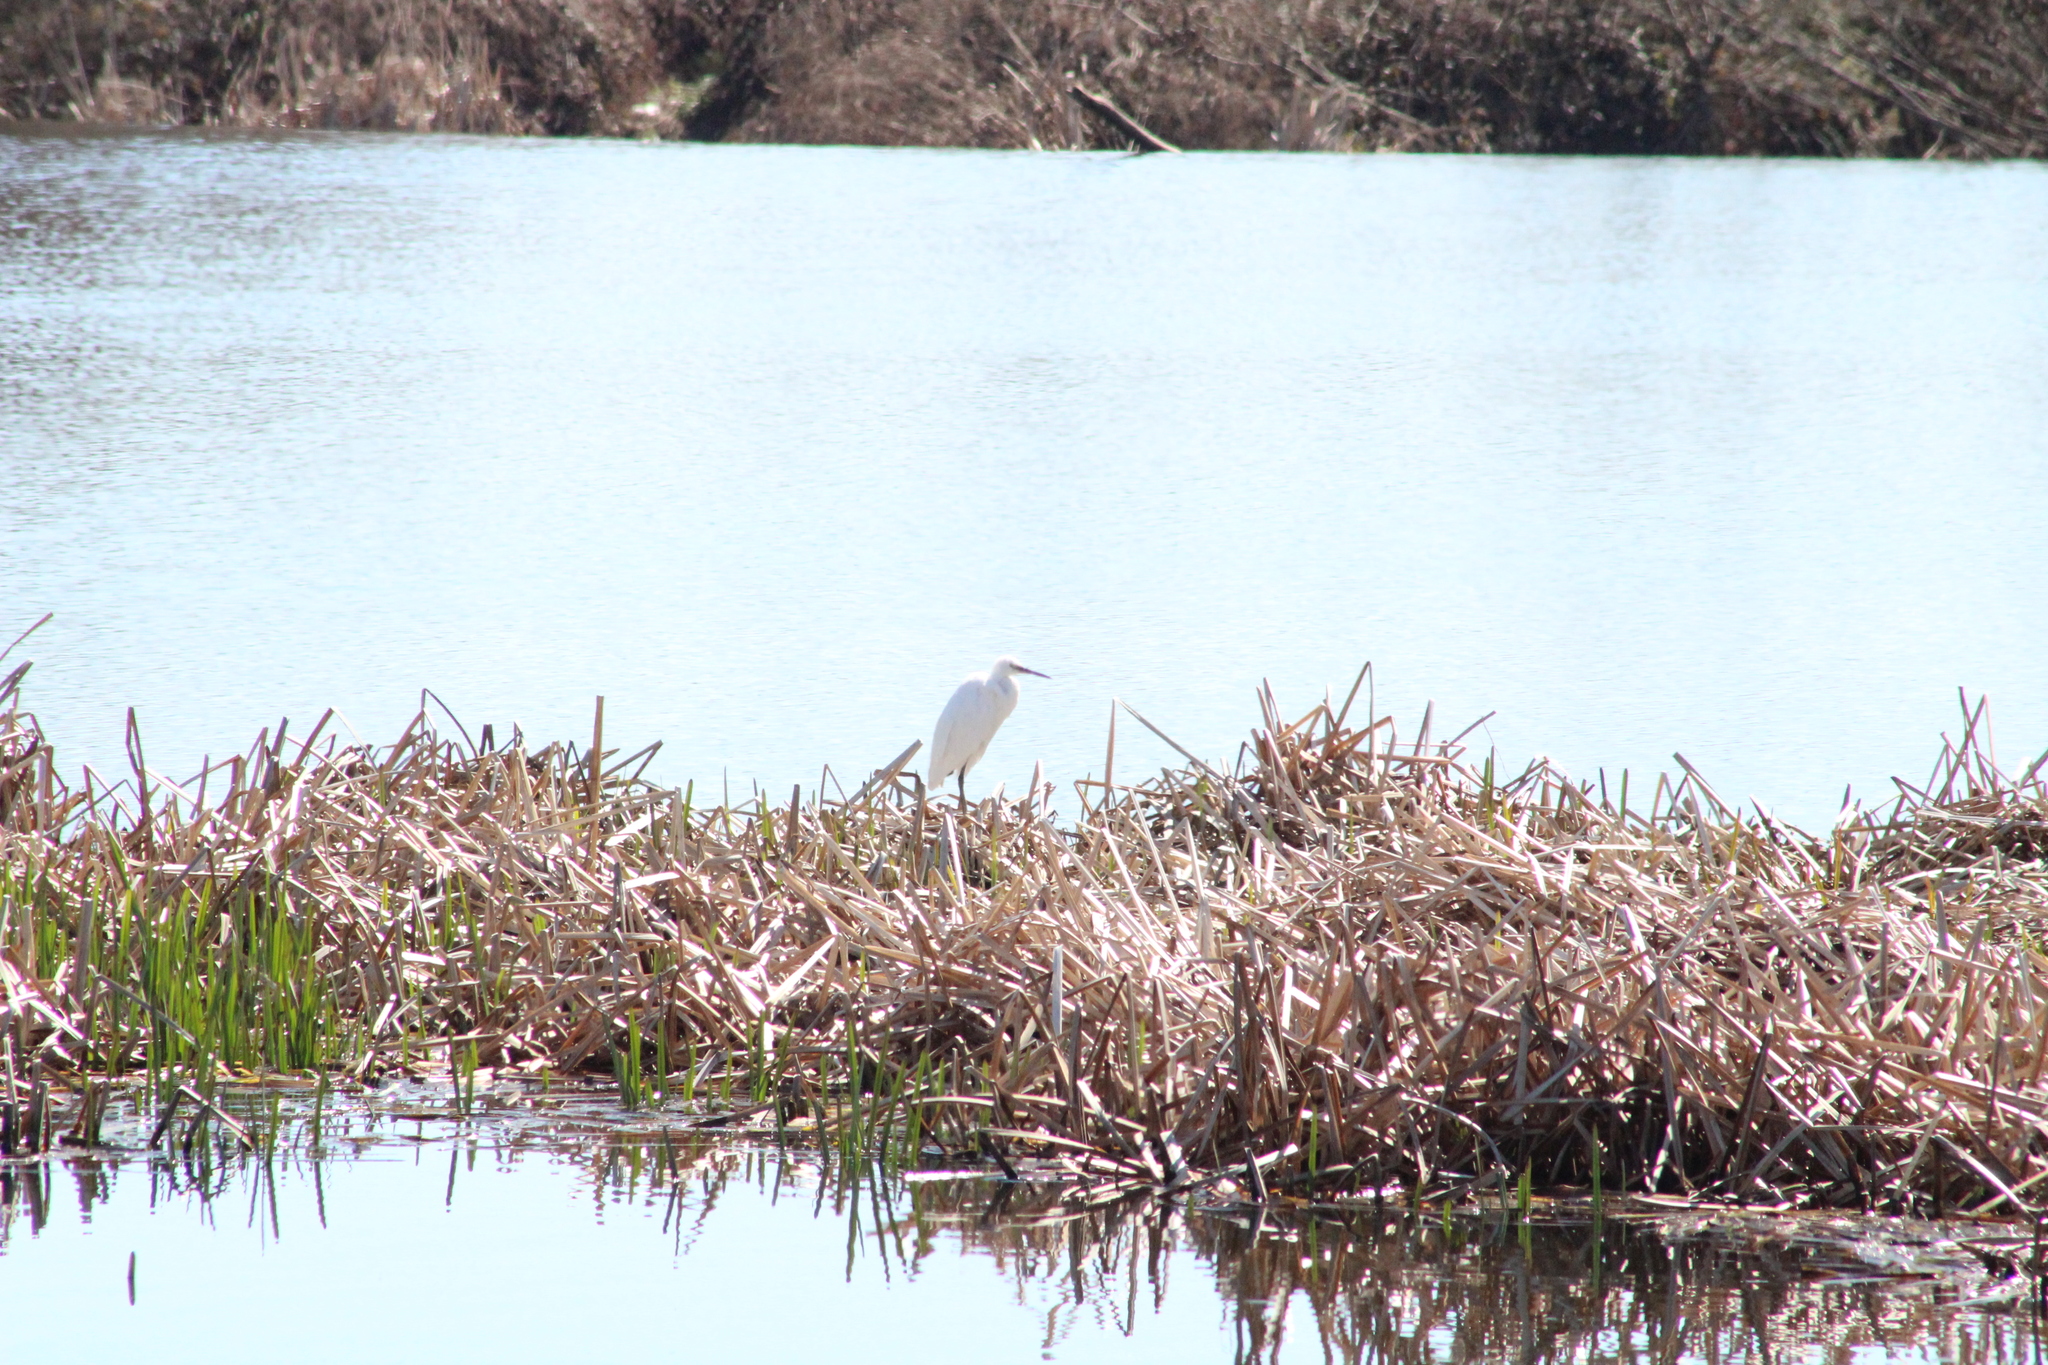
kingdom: Animalia
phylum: Chordata
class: Aves
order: Pelecaniformes
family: Ardeidae
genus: Egretta
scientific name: Egretta garzetta
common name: Little egret
